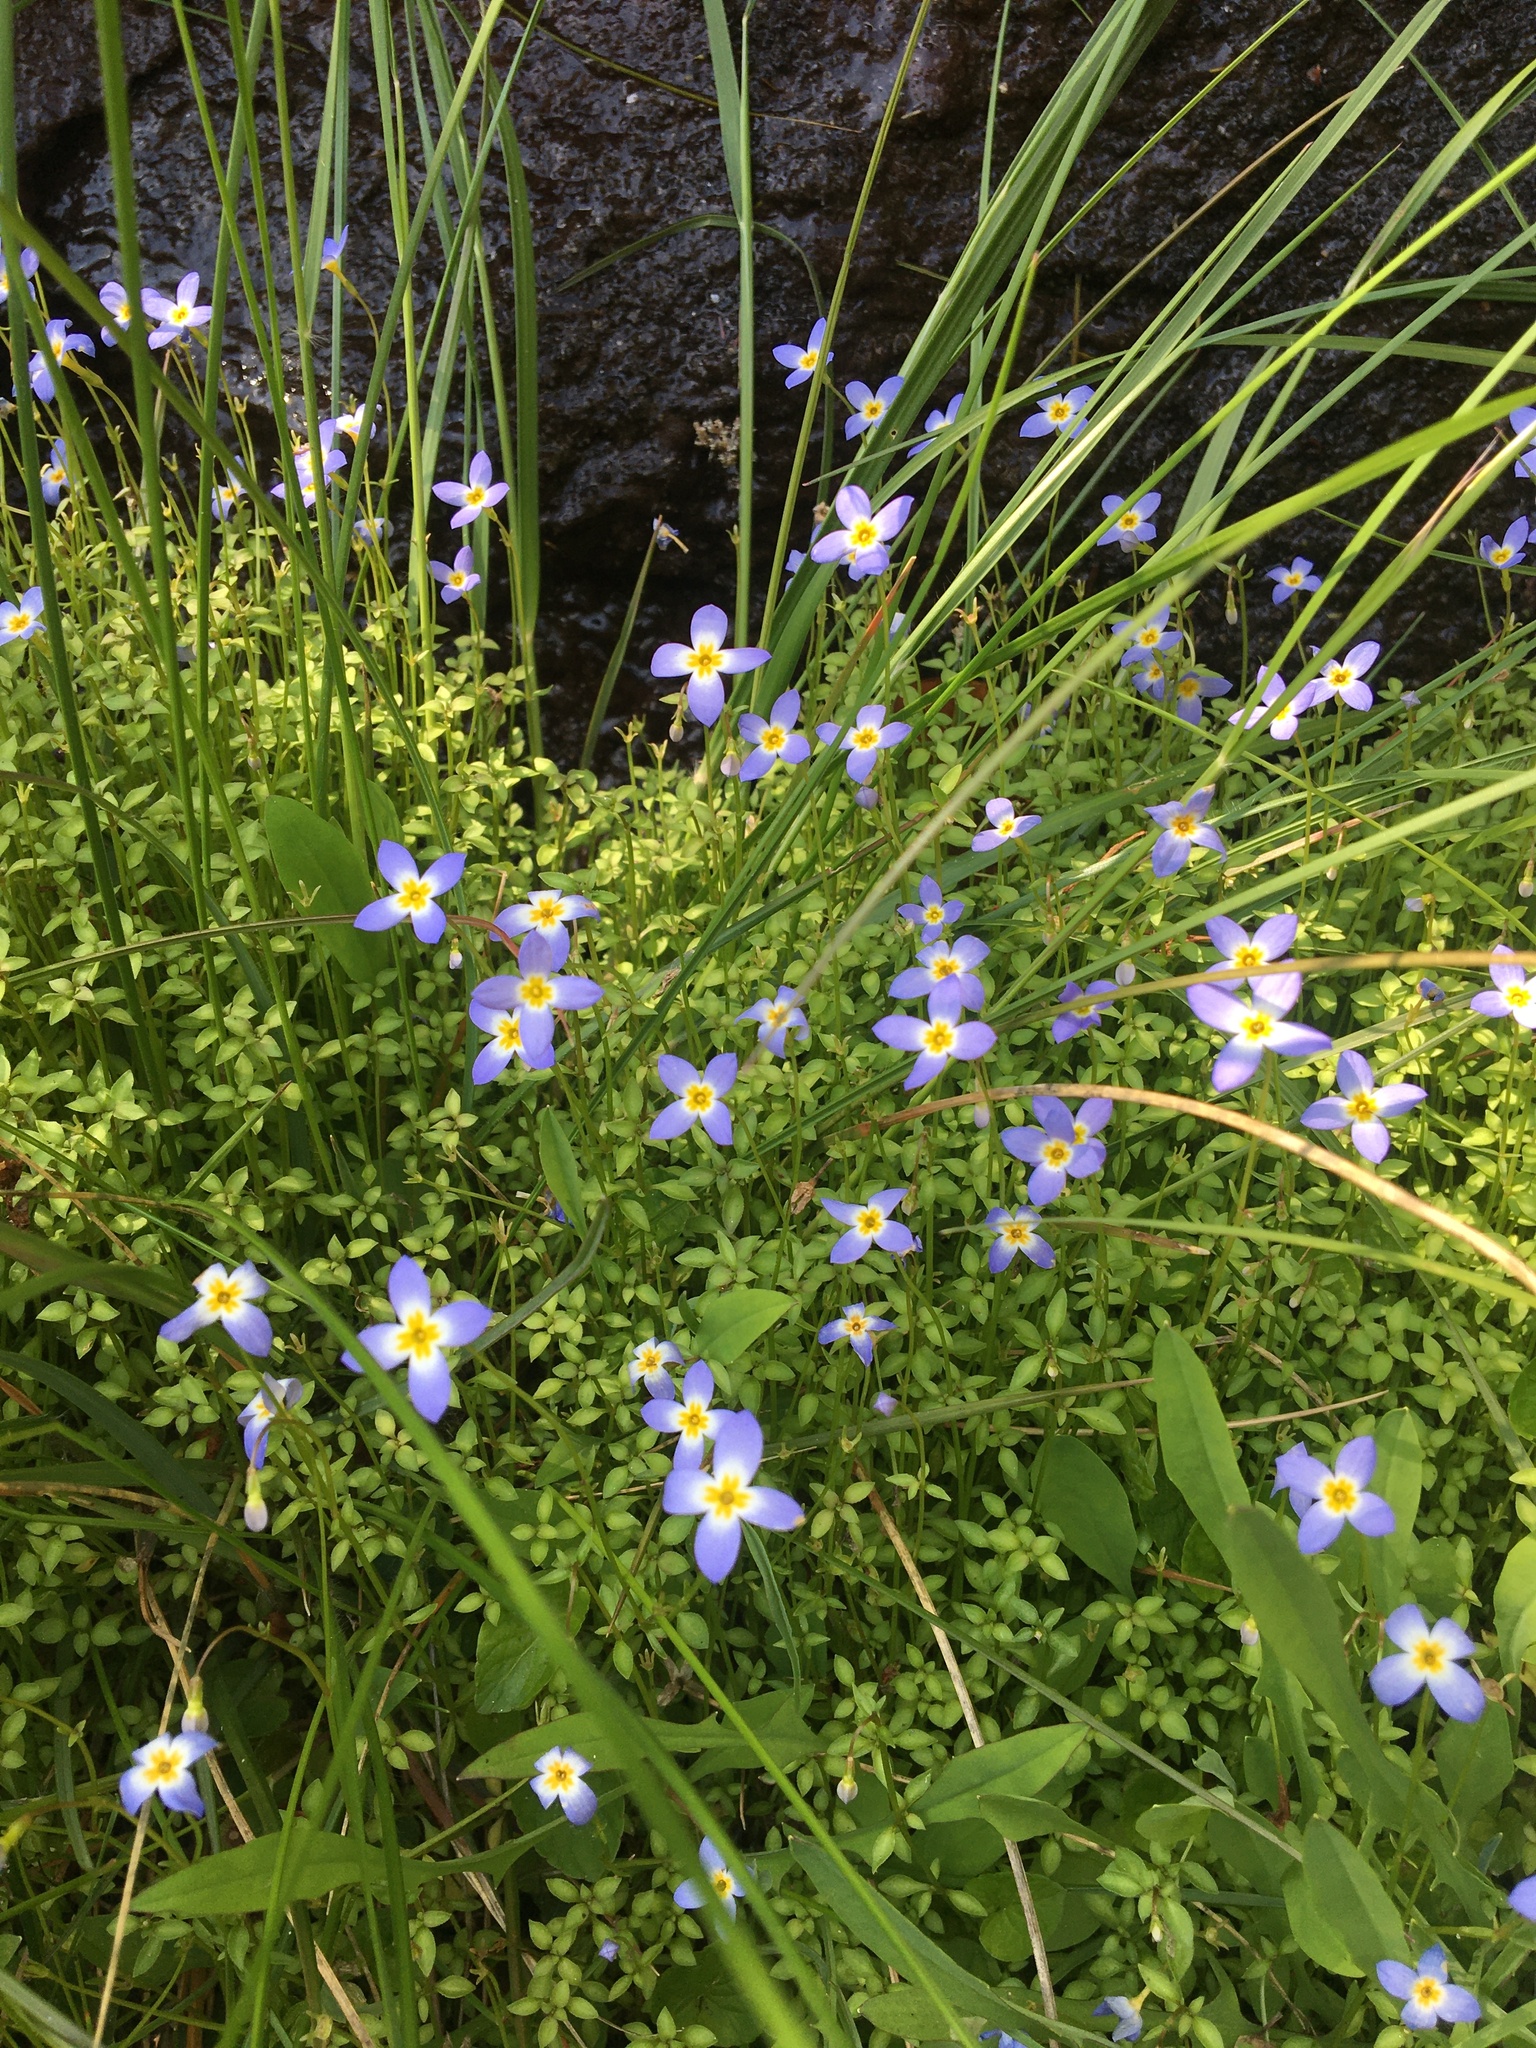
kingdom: Plantae
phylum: Tracheophyta
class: Magnoliopsida
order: Gentianales
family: Rubiaceae
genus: Houstonia
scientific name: Houstonia serpyllifolia
